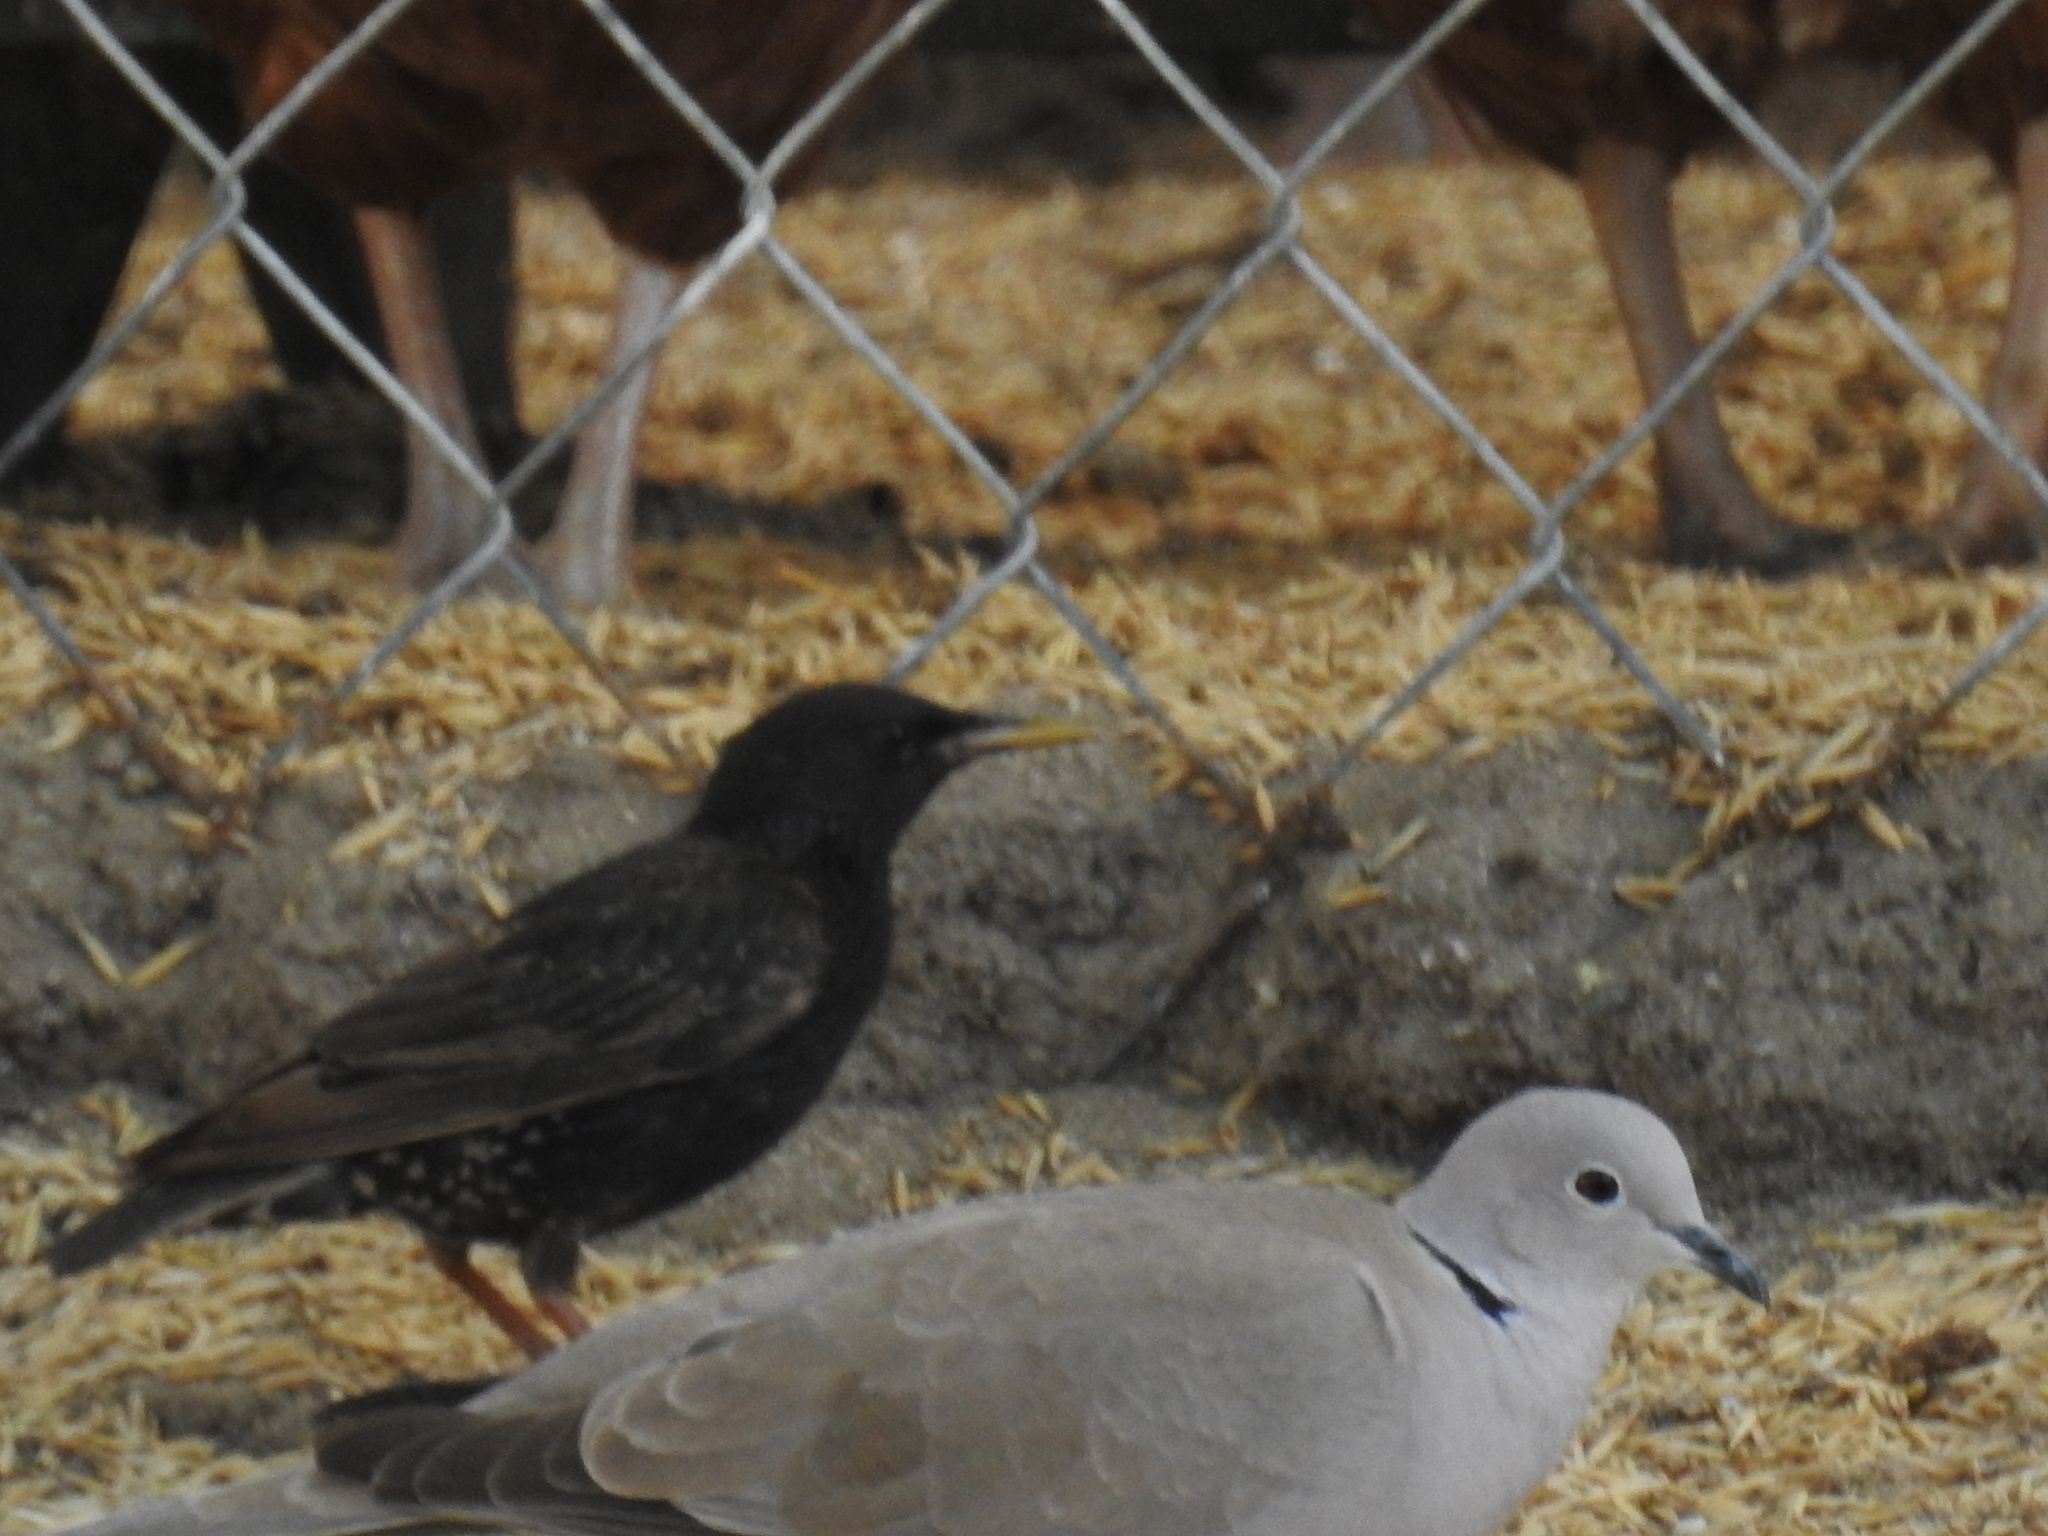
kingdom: Animalia
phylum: Chordata
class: Aves
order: Passeriformes
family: Sturnidae
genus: Sturnus
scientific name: Sturnus vulgaris
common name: Common starling
